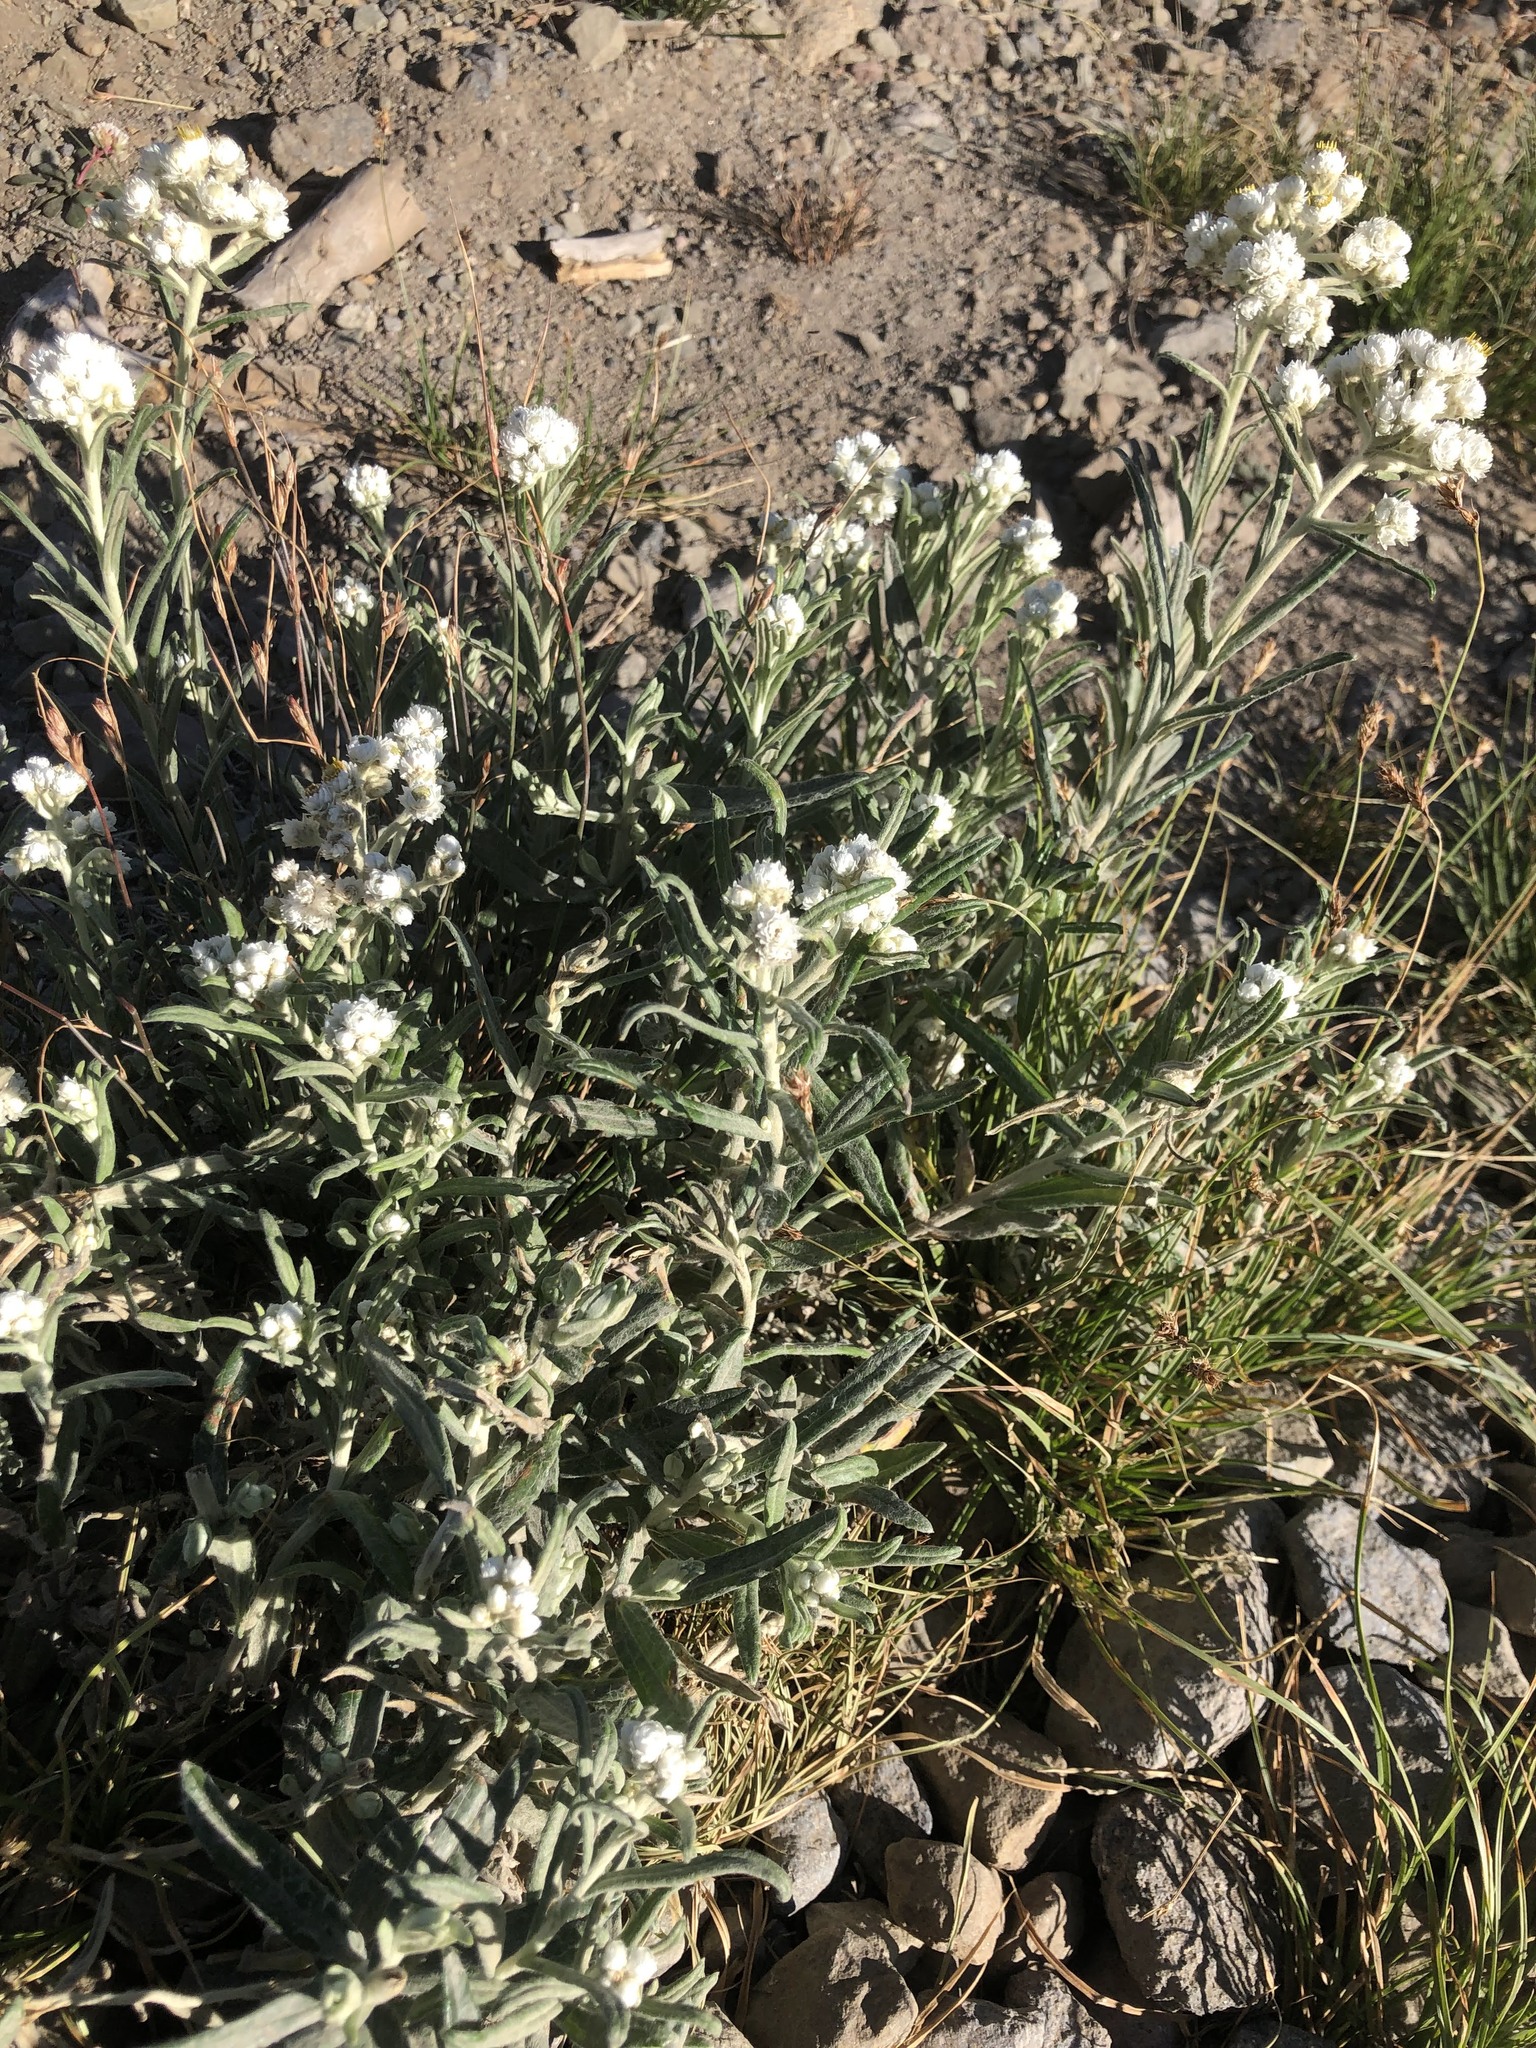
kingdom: Plantae
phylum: Tracheophyta
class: Magnoliopsida
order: Asterales
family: Asteraceae
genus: Anaphalis
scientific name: Anaphalis margaritacea
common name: Pearly everlasting
